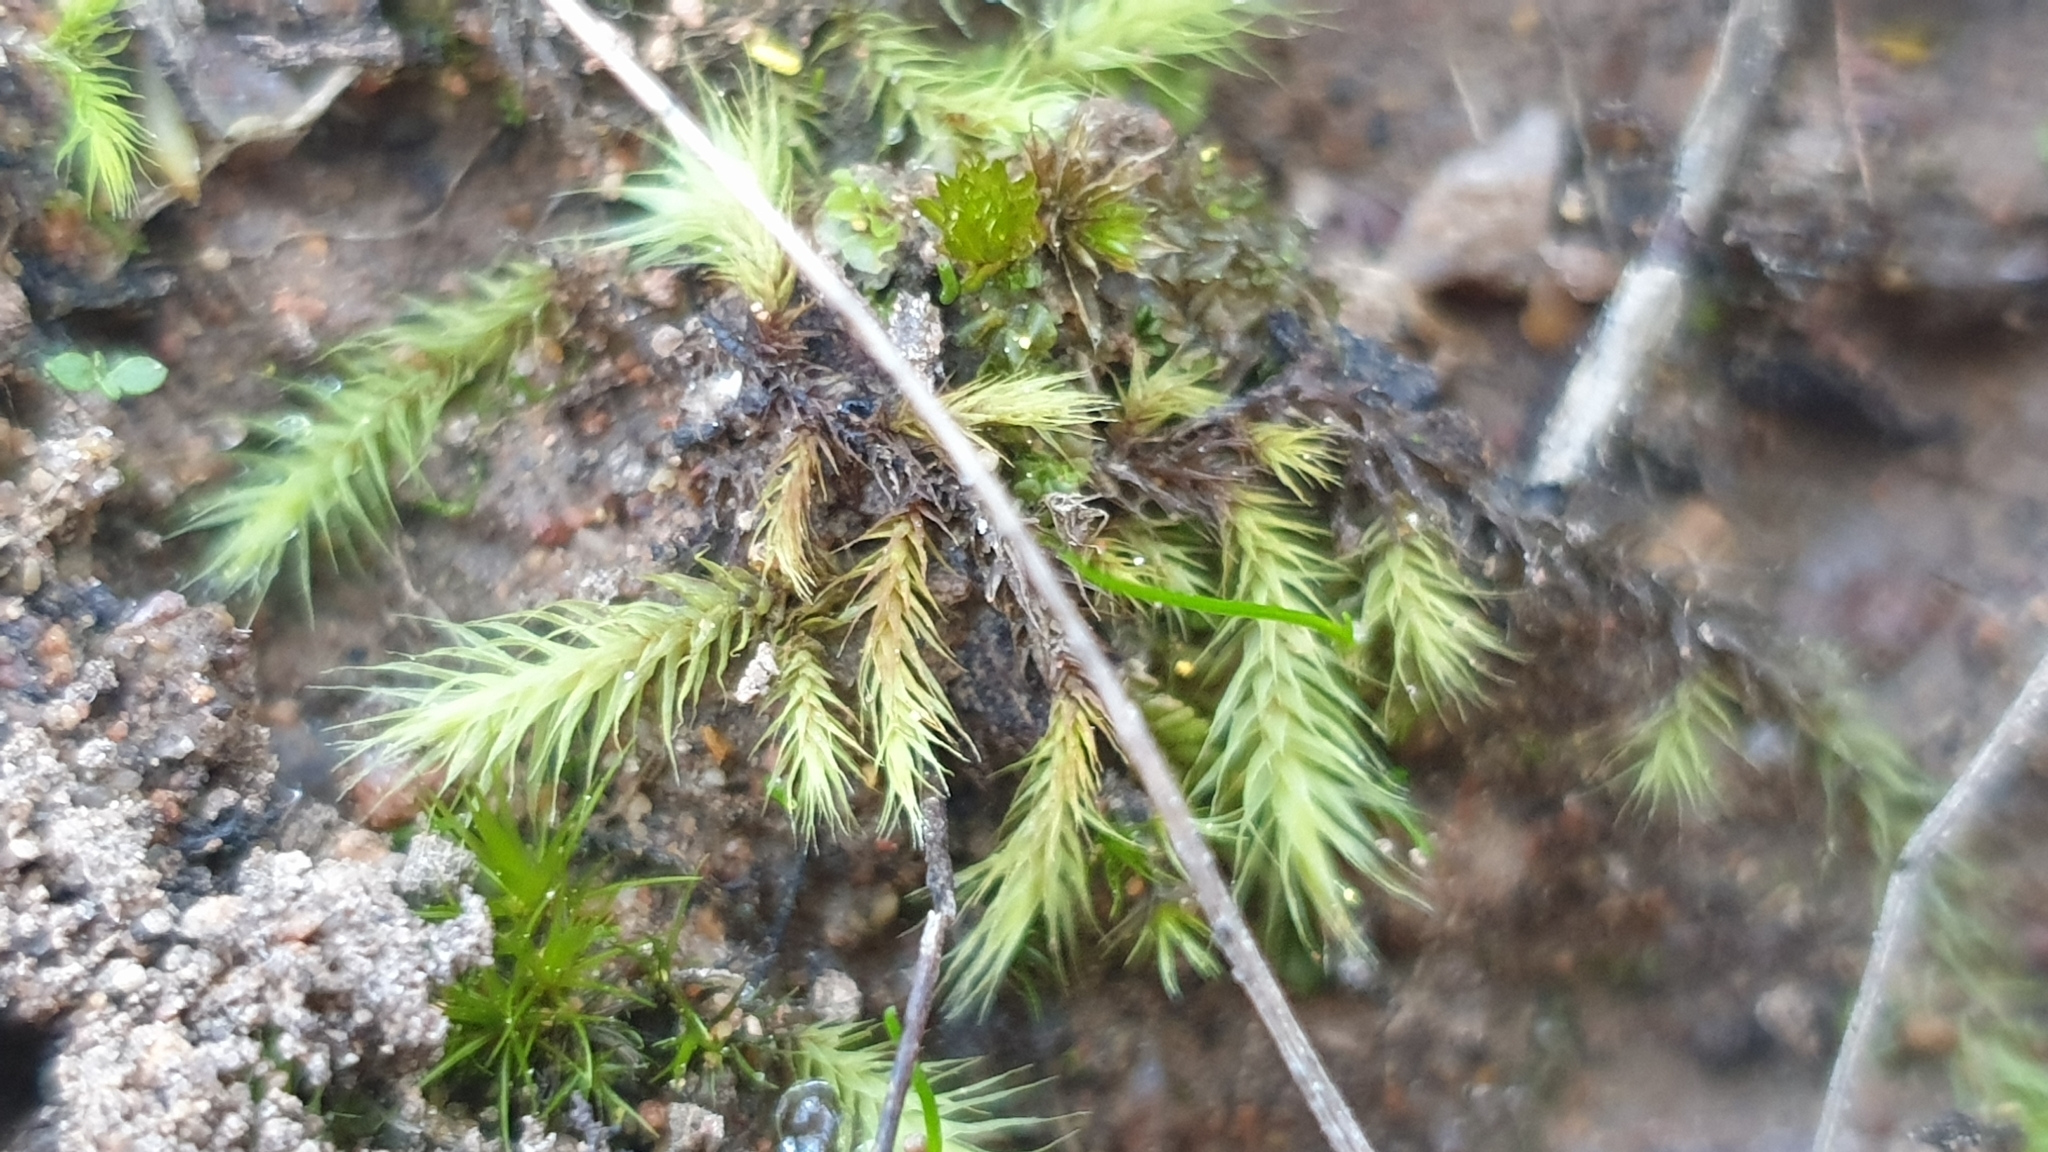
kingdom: Plantae
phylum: Bryophyta
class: Bryopsida
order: Bartramiales
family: Bartramiaceae
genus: Breutelia
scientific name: Breutelia affinis
